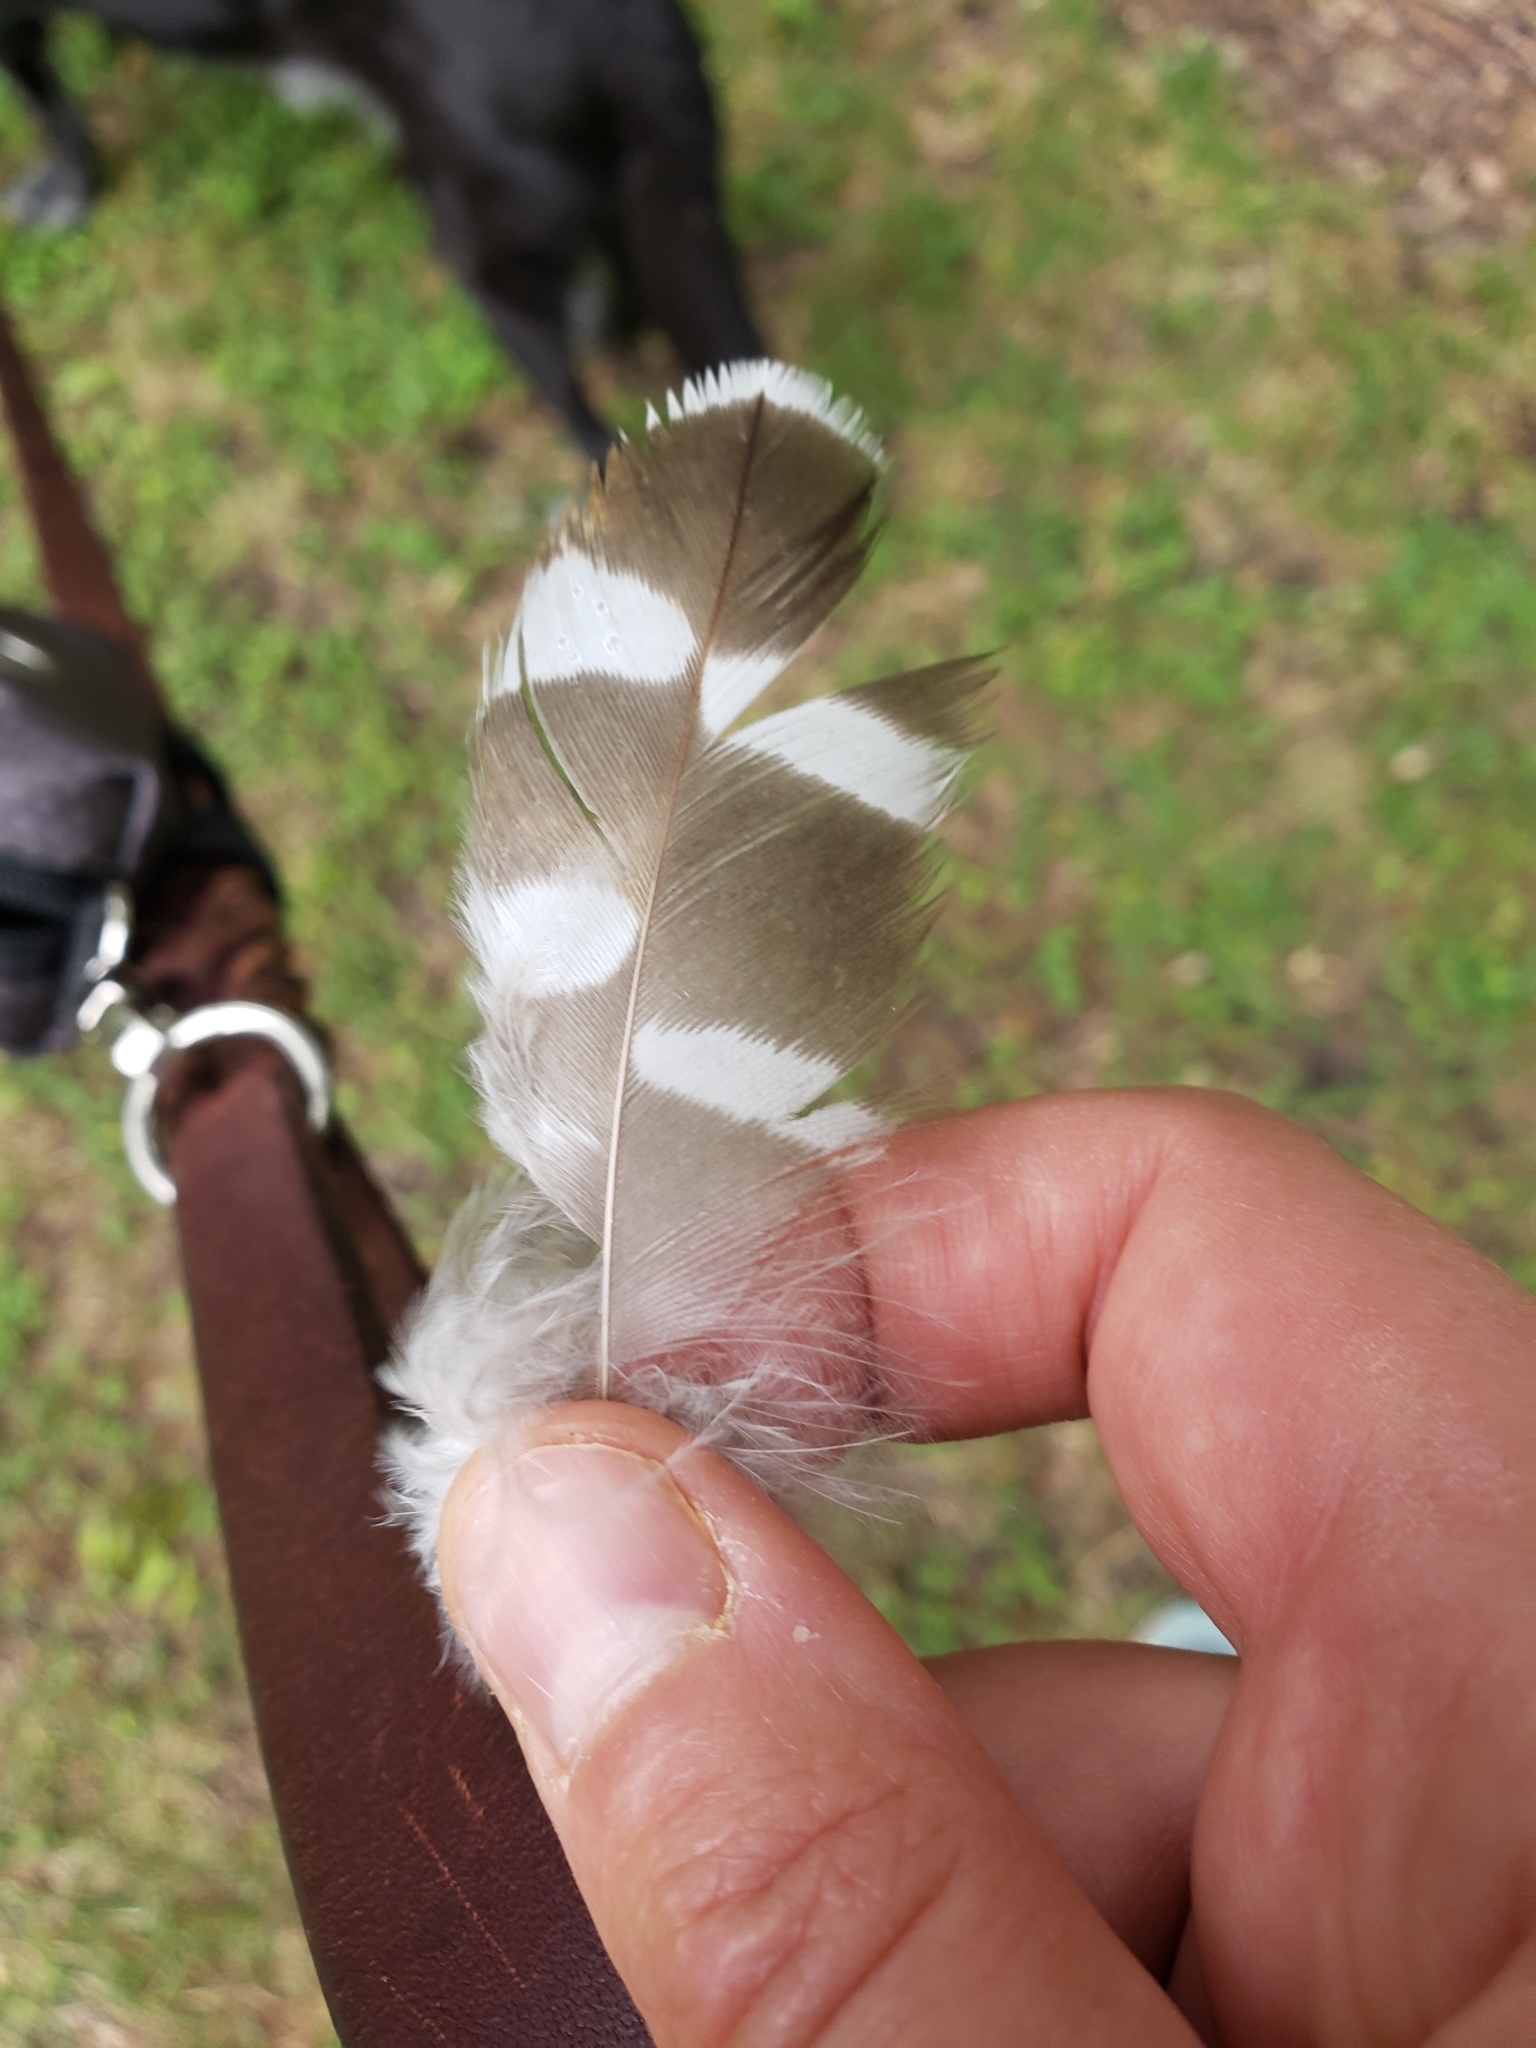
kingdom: Animalia
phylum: Chordata
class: Aves
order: Accipitriformes
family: Accipitridae
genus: Buteo
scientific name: Buteo lineatus
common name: Red-shouldered hawk
